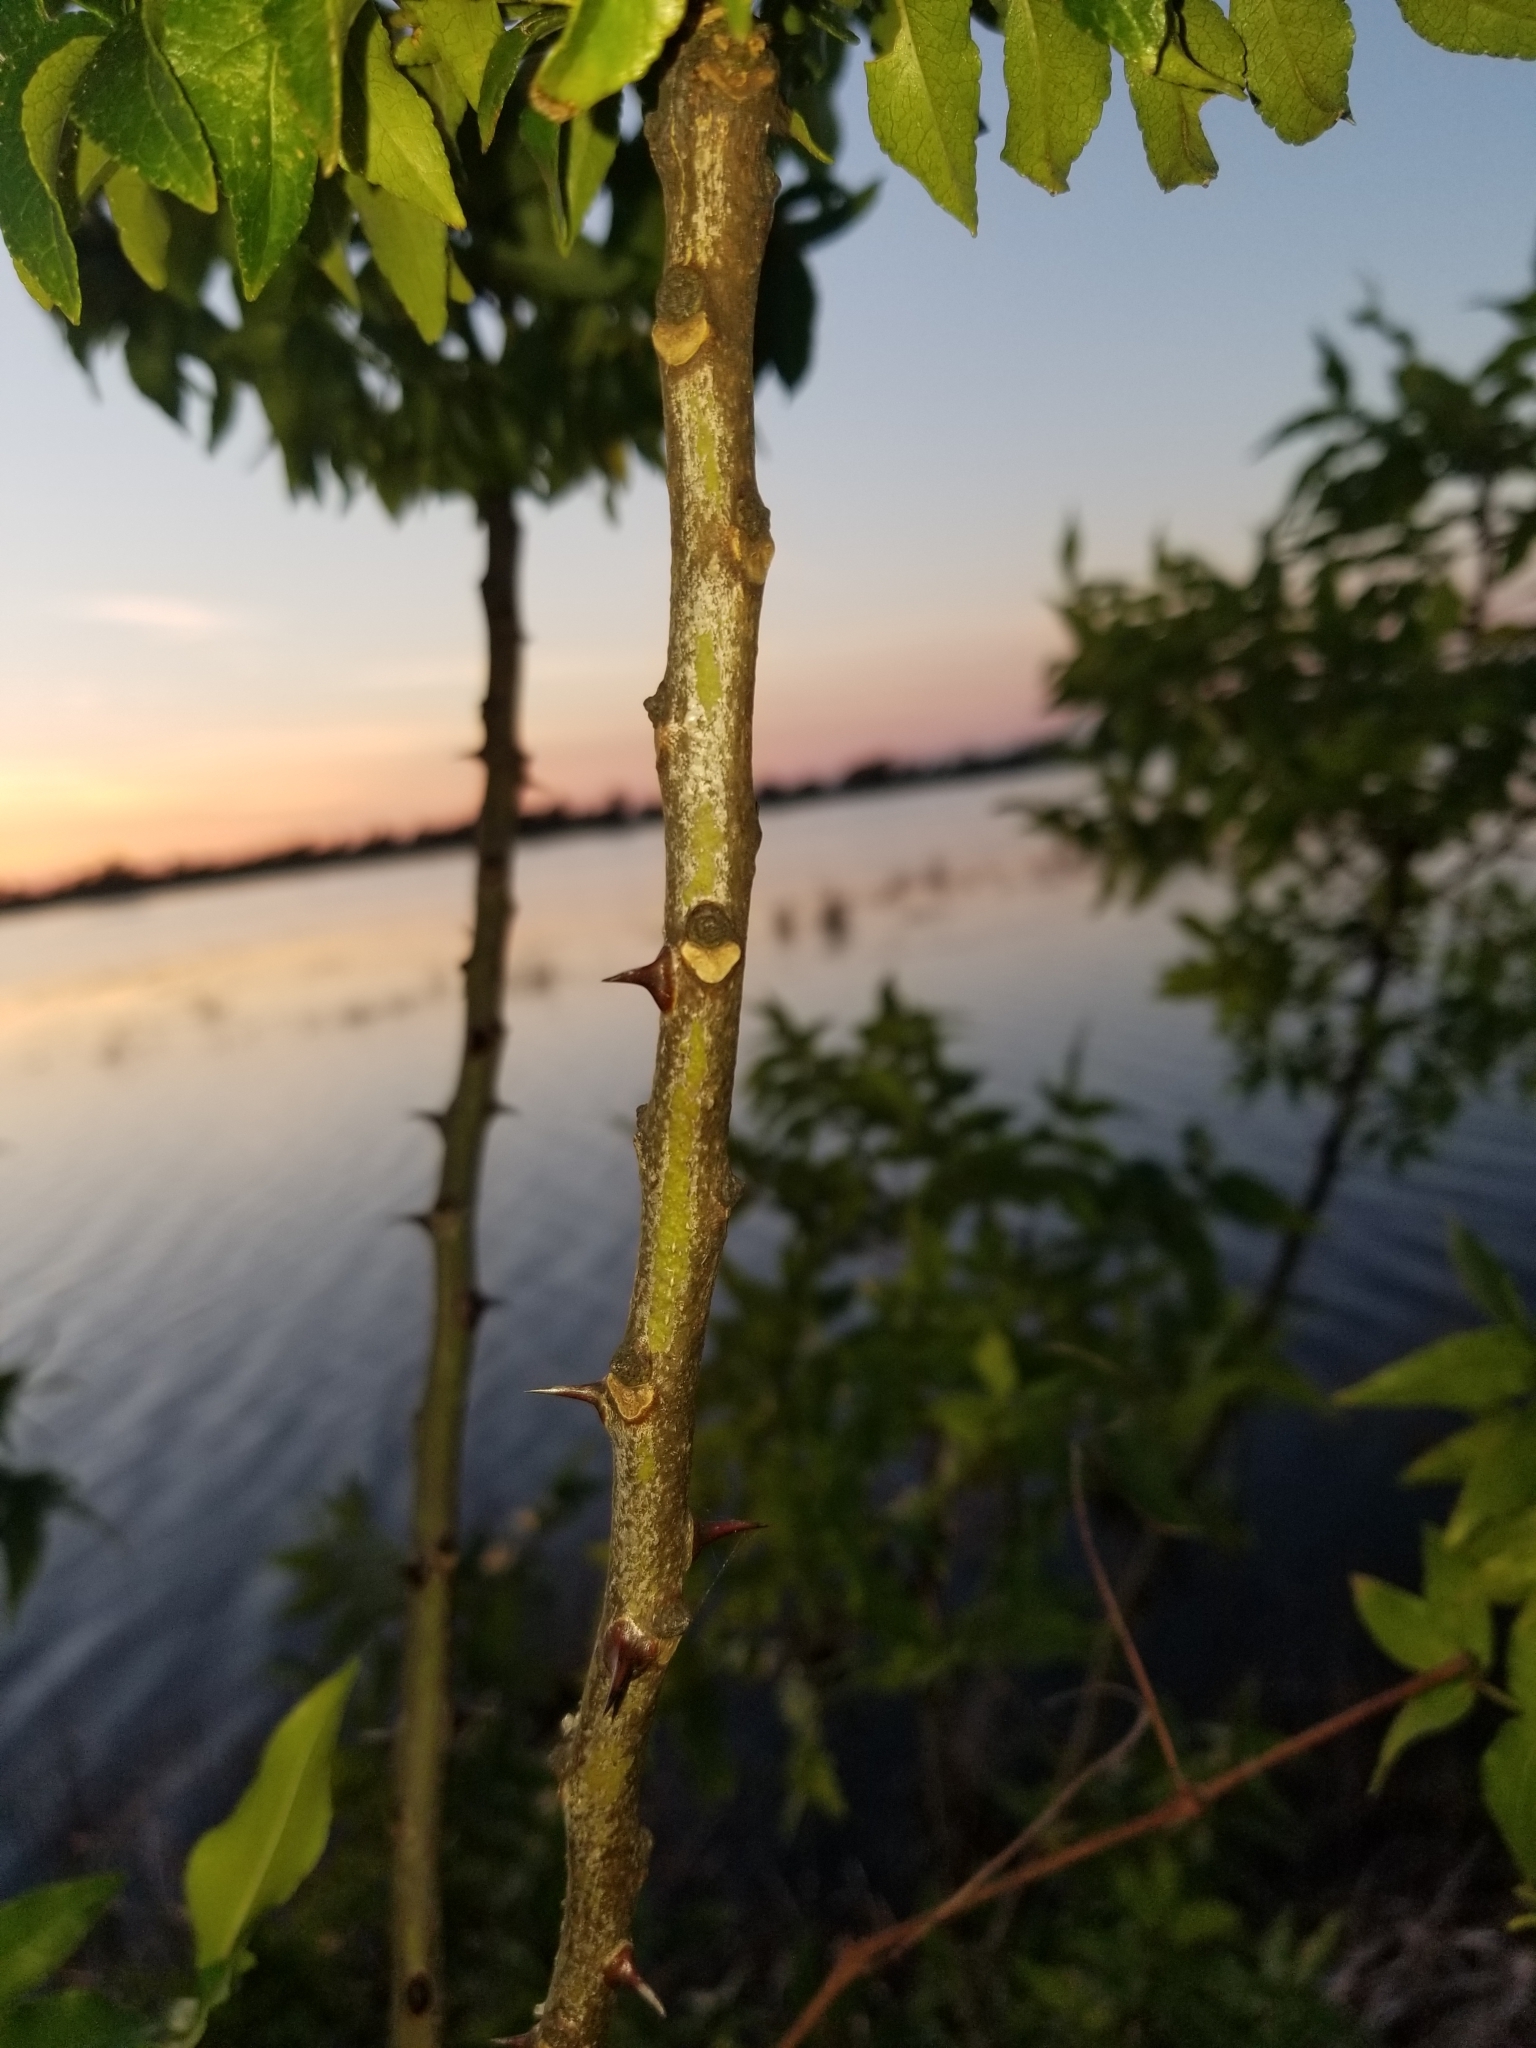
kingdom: Plantae
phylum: Tracheophyta
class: Magnoliopsida
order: Sapindales
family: Rutaceae
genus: Zanthoxylum
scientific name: Zanthoxylum clava-herculis
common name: Hercules'-club
